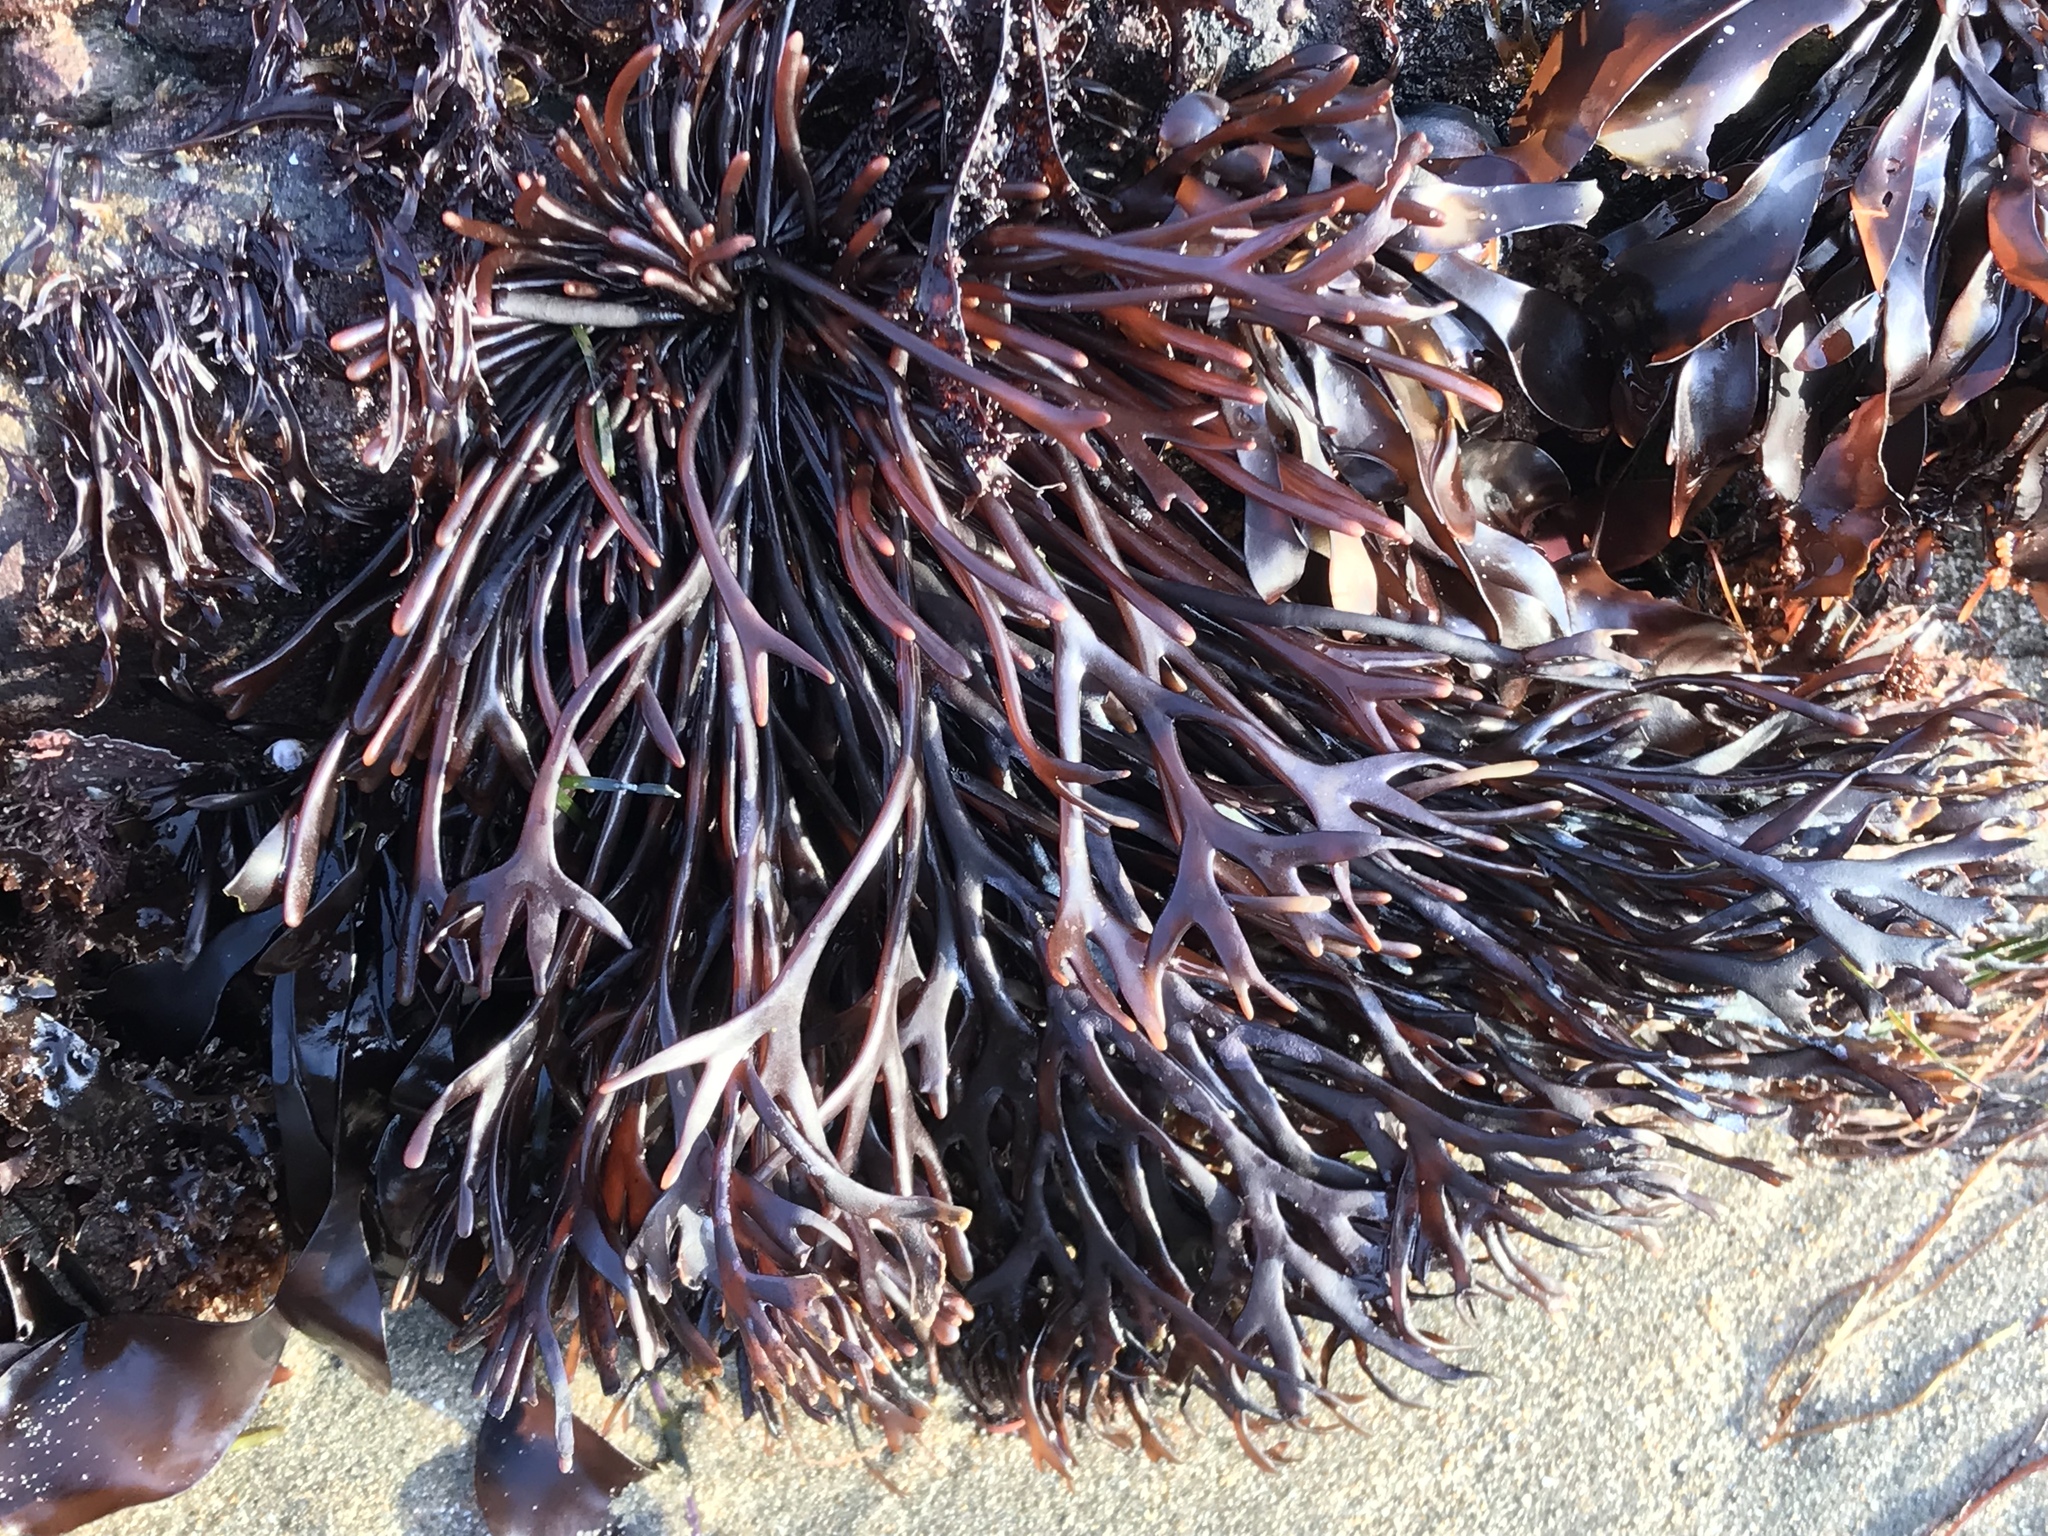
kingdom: Plantae
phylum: Rhodophyta
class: Florideophyceae
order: Gigartinales
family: Phyllophoraceae
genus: Ahnfeltiopsis
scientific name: Ahnfeltiopsis linearis
